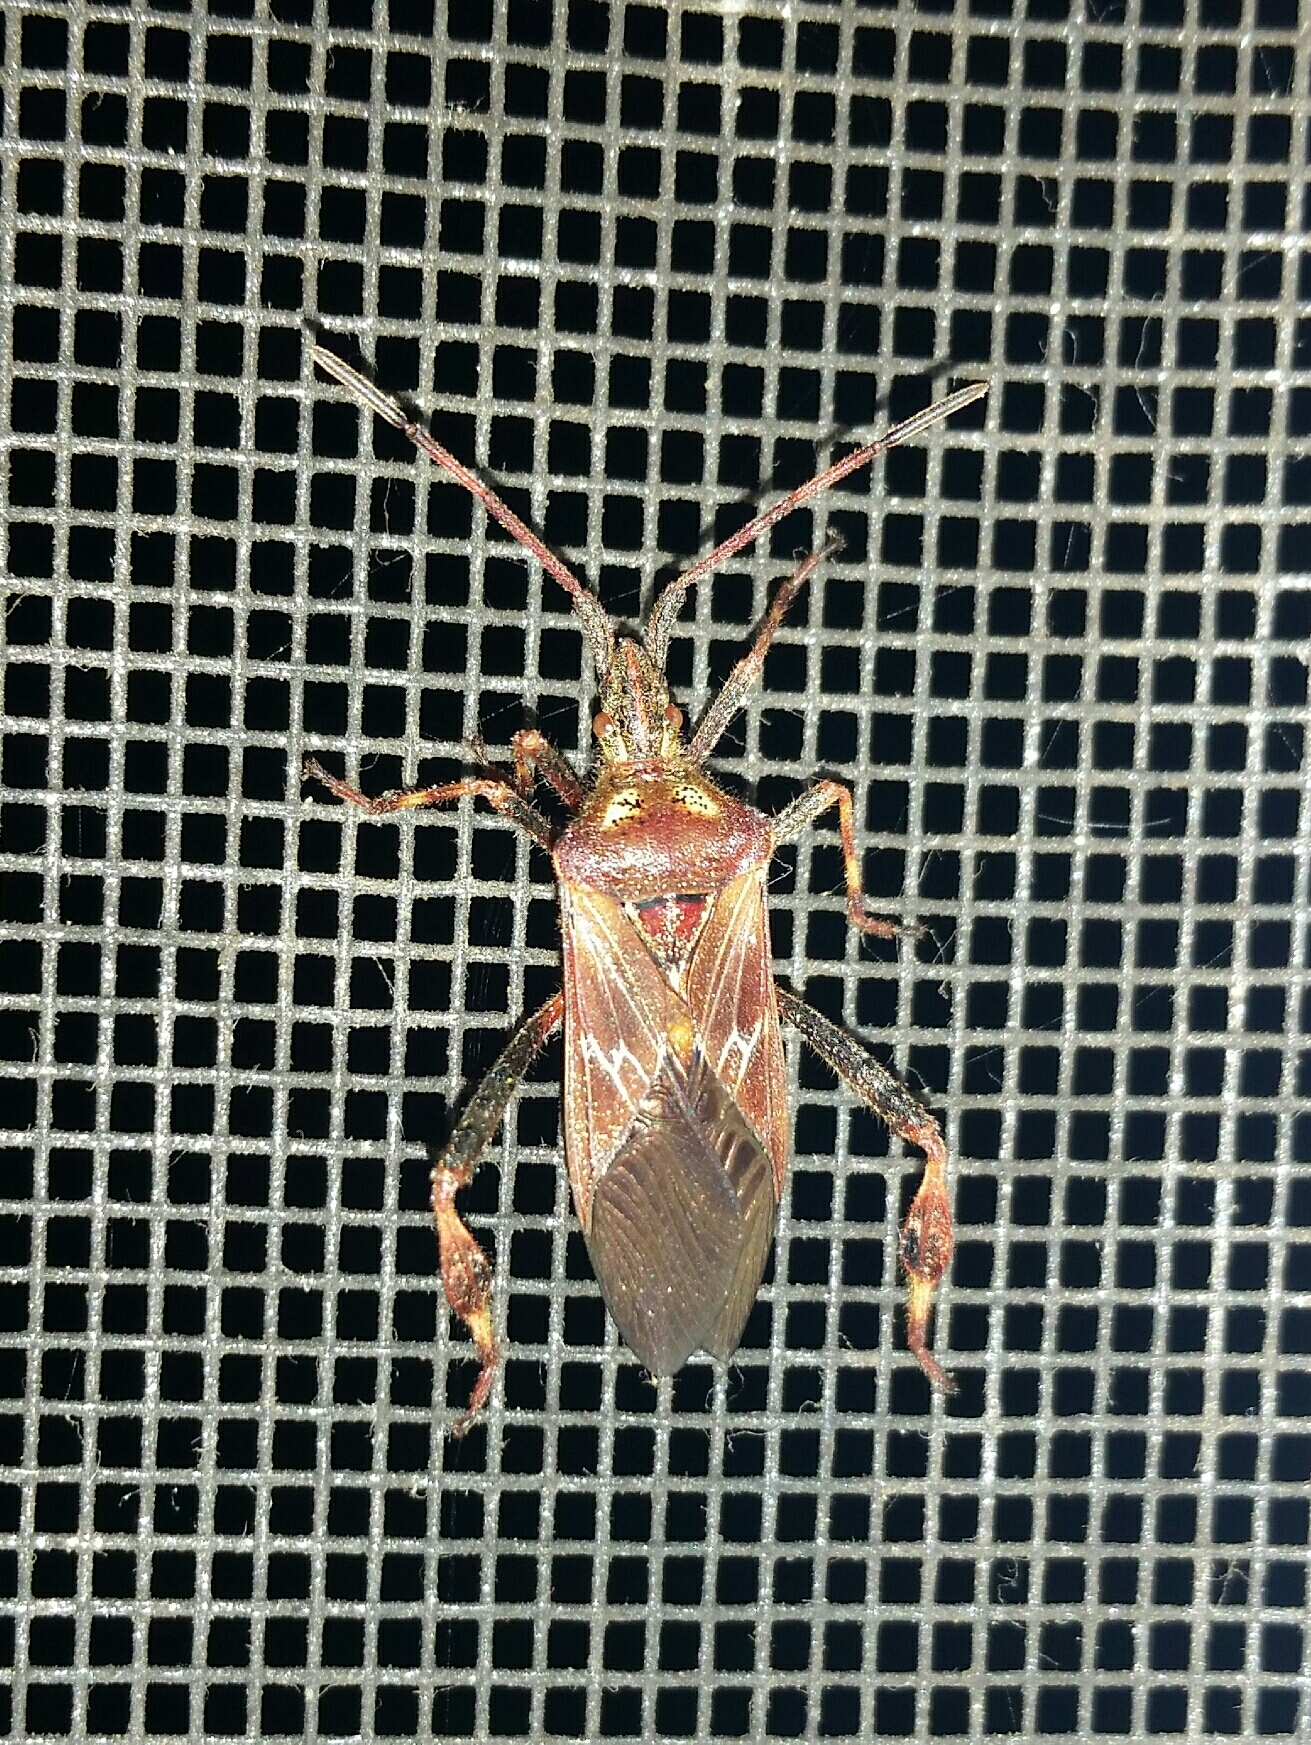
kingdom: Animalia
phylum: Arthropoda
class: Insecta
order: Hemiptera
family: Coreidae
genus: Leptoglossus
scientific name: Leptoglossus occidentalis
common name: Western conifer-seed bug
